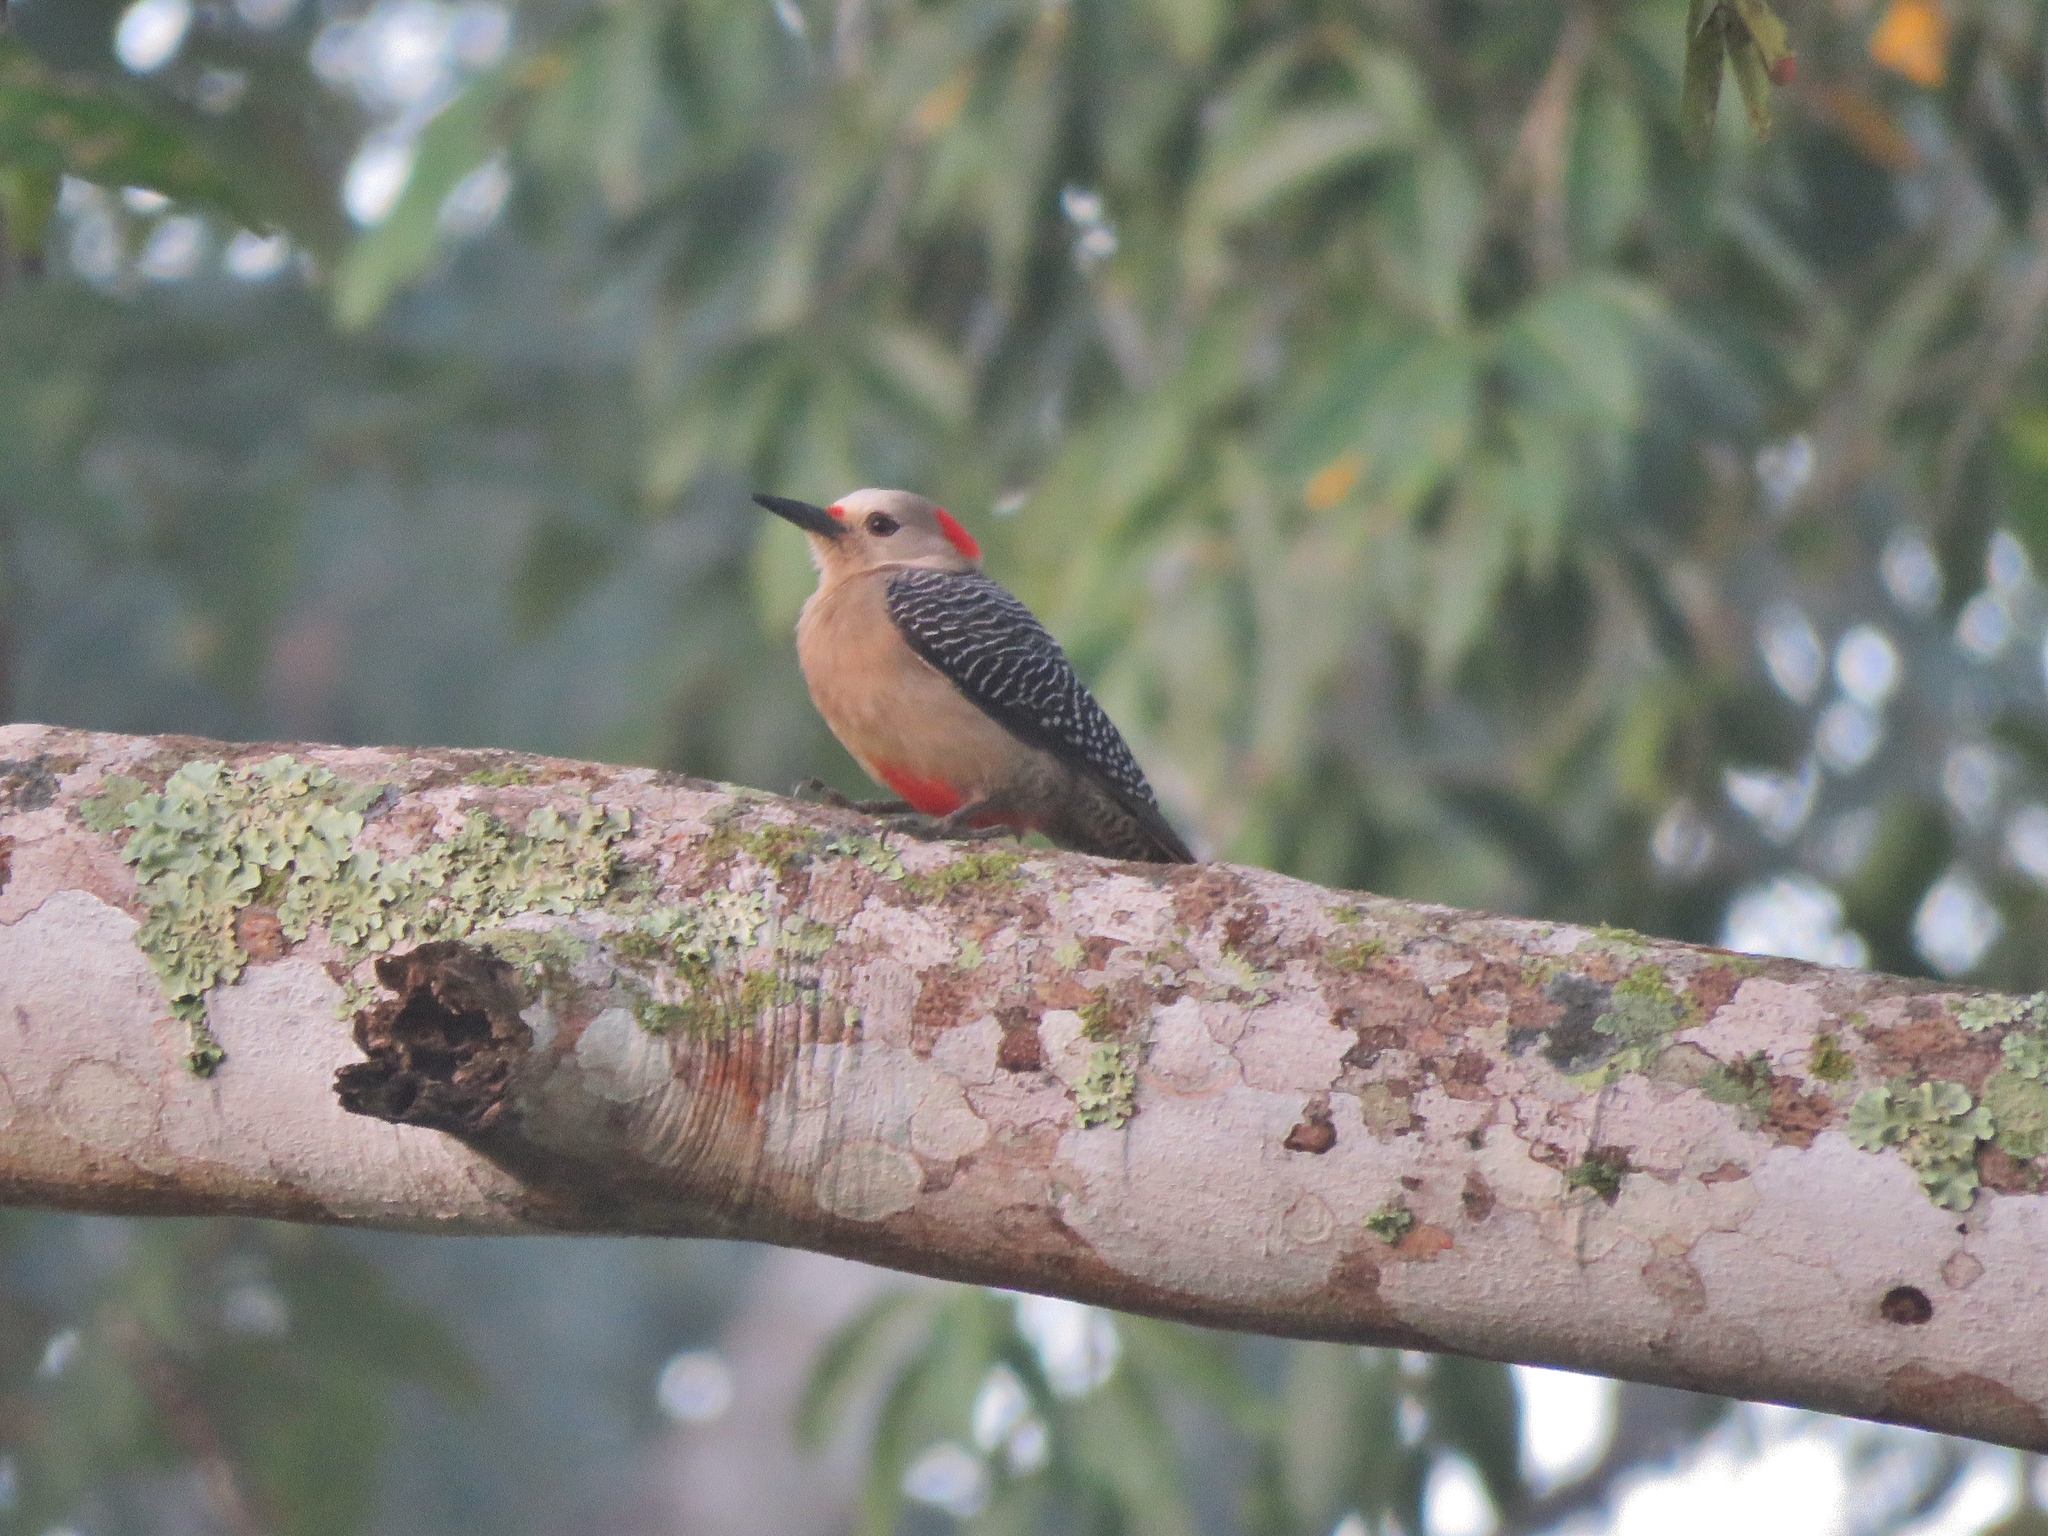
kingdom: Animalia
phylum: Chordata
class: Aves
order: Piciformes
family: Picidae
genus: Melanerpes
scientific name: Melanerpes aurifrons
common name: Golden-fronted woodpecker
